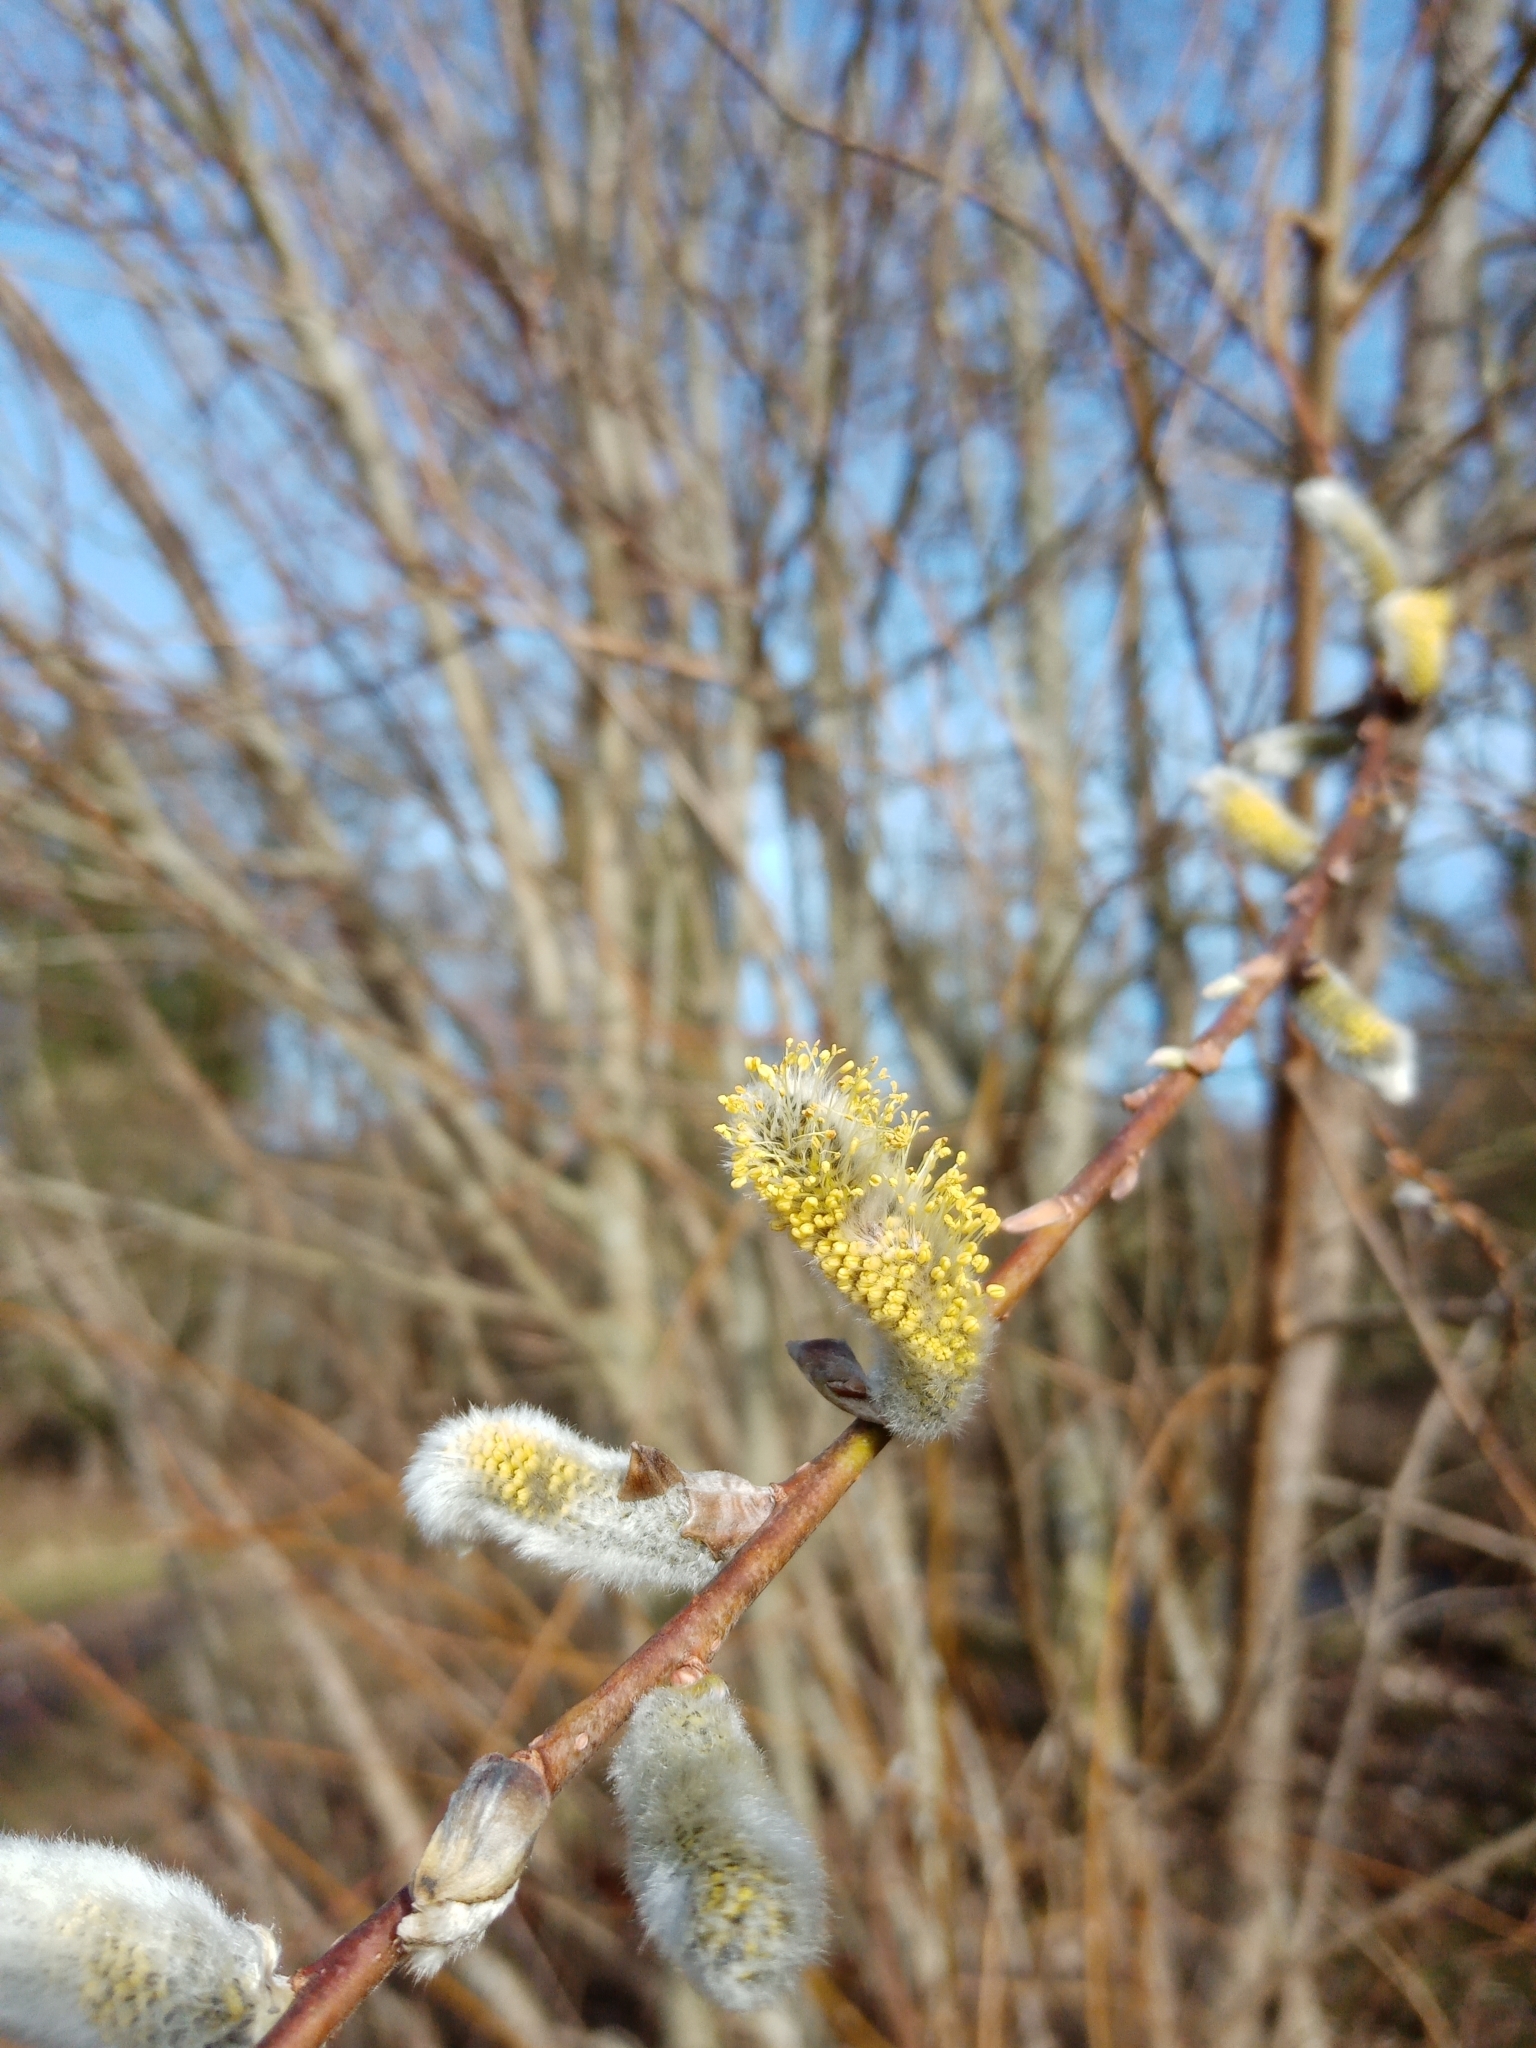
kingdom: Plantae
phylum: Tracheophyta
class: Magnoliopsida
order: Malpighiales
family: Salicaceae
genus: Salix
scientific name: Salix caprea
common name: Goat willow
